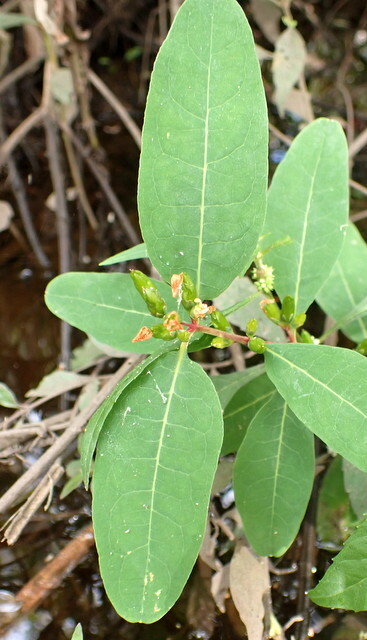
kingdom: Plantae
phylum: Tracheophyta
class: Magnoliopsida
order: Malpighiales
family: Hypericaceae
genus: Triadenum
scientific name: Triadenum walteri
